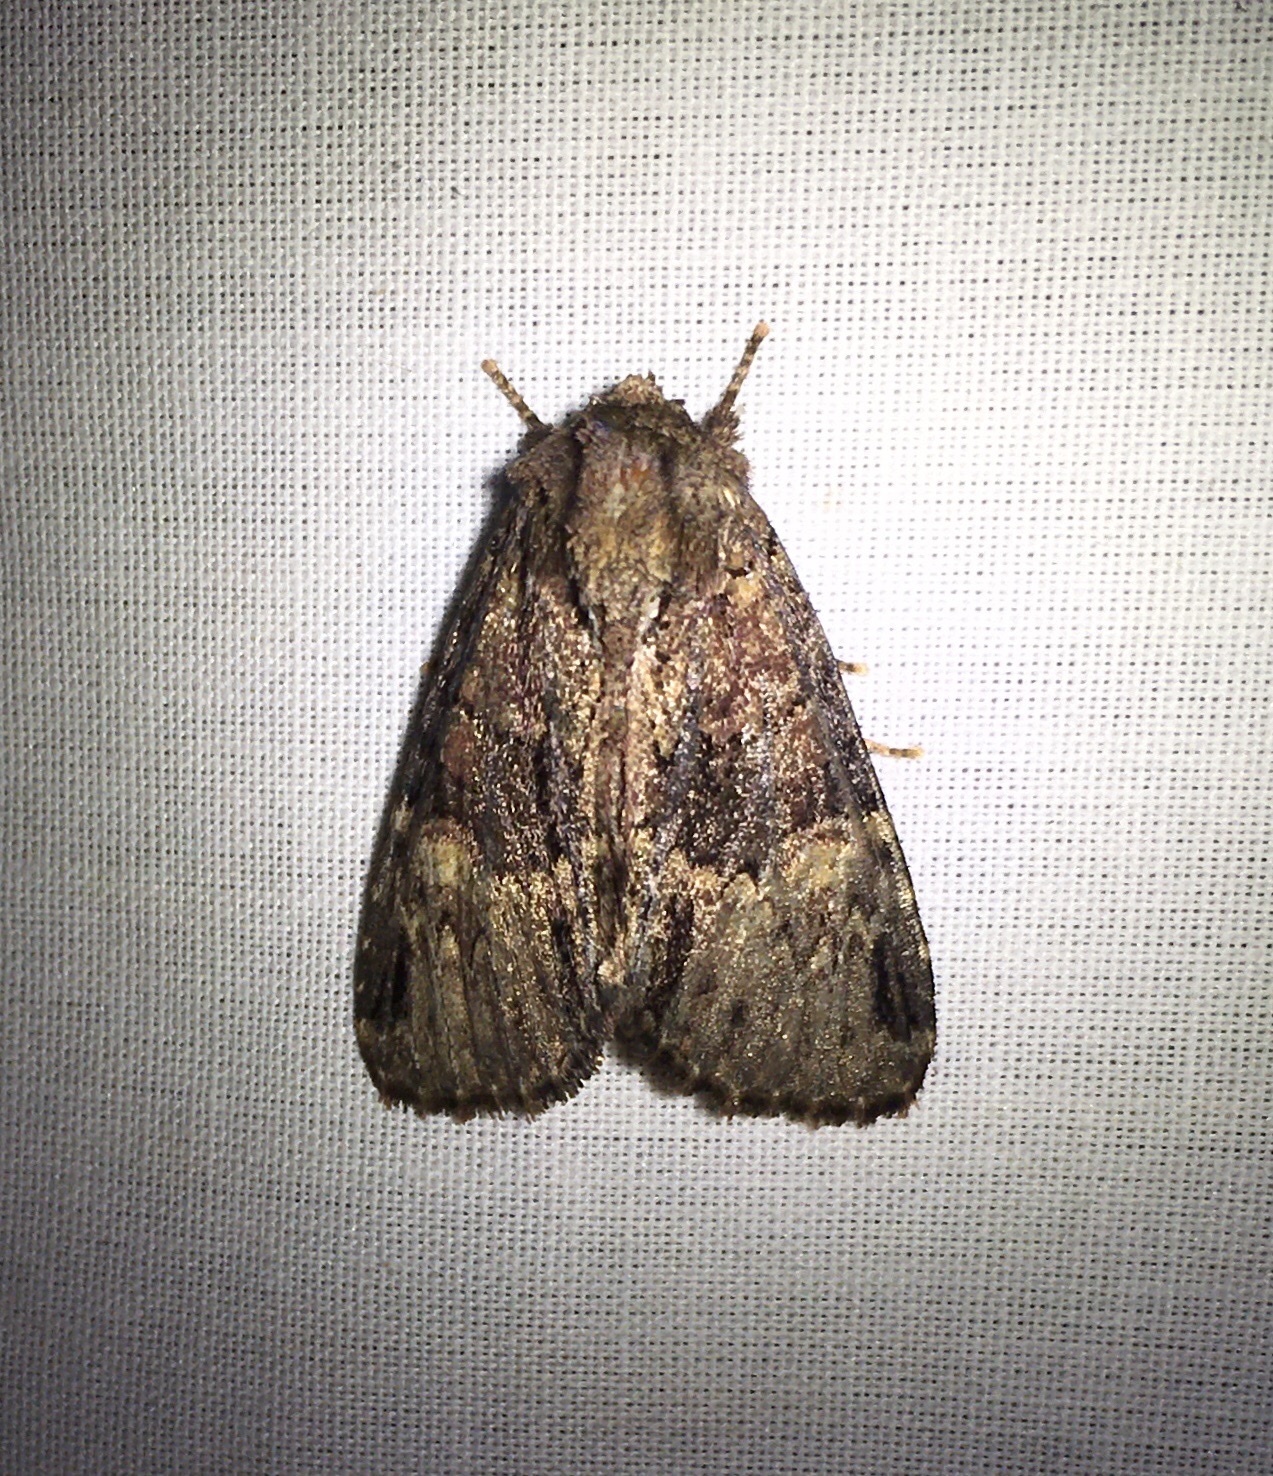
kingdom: Animalia
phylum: Arthropoda
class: Insecta
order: Lepidoptera
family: Noctuidae
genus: Phosphila
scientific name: Phosphila turbulenta
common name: Turbulent phosphila moth
